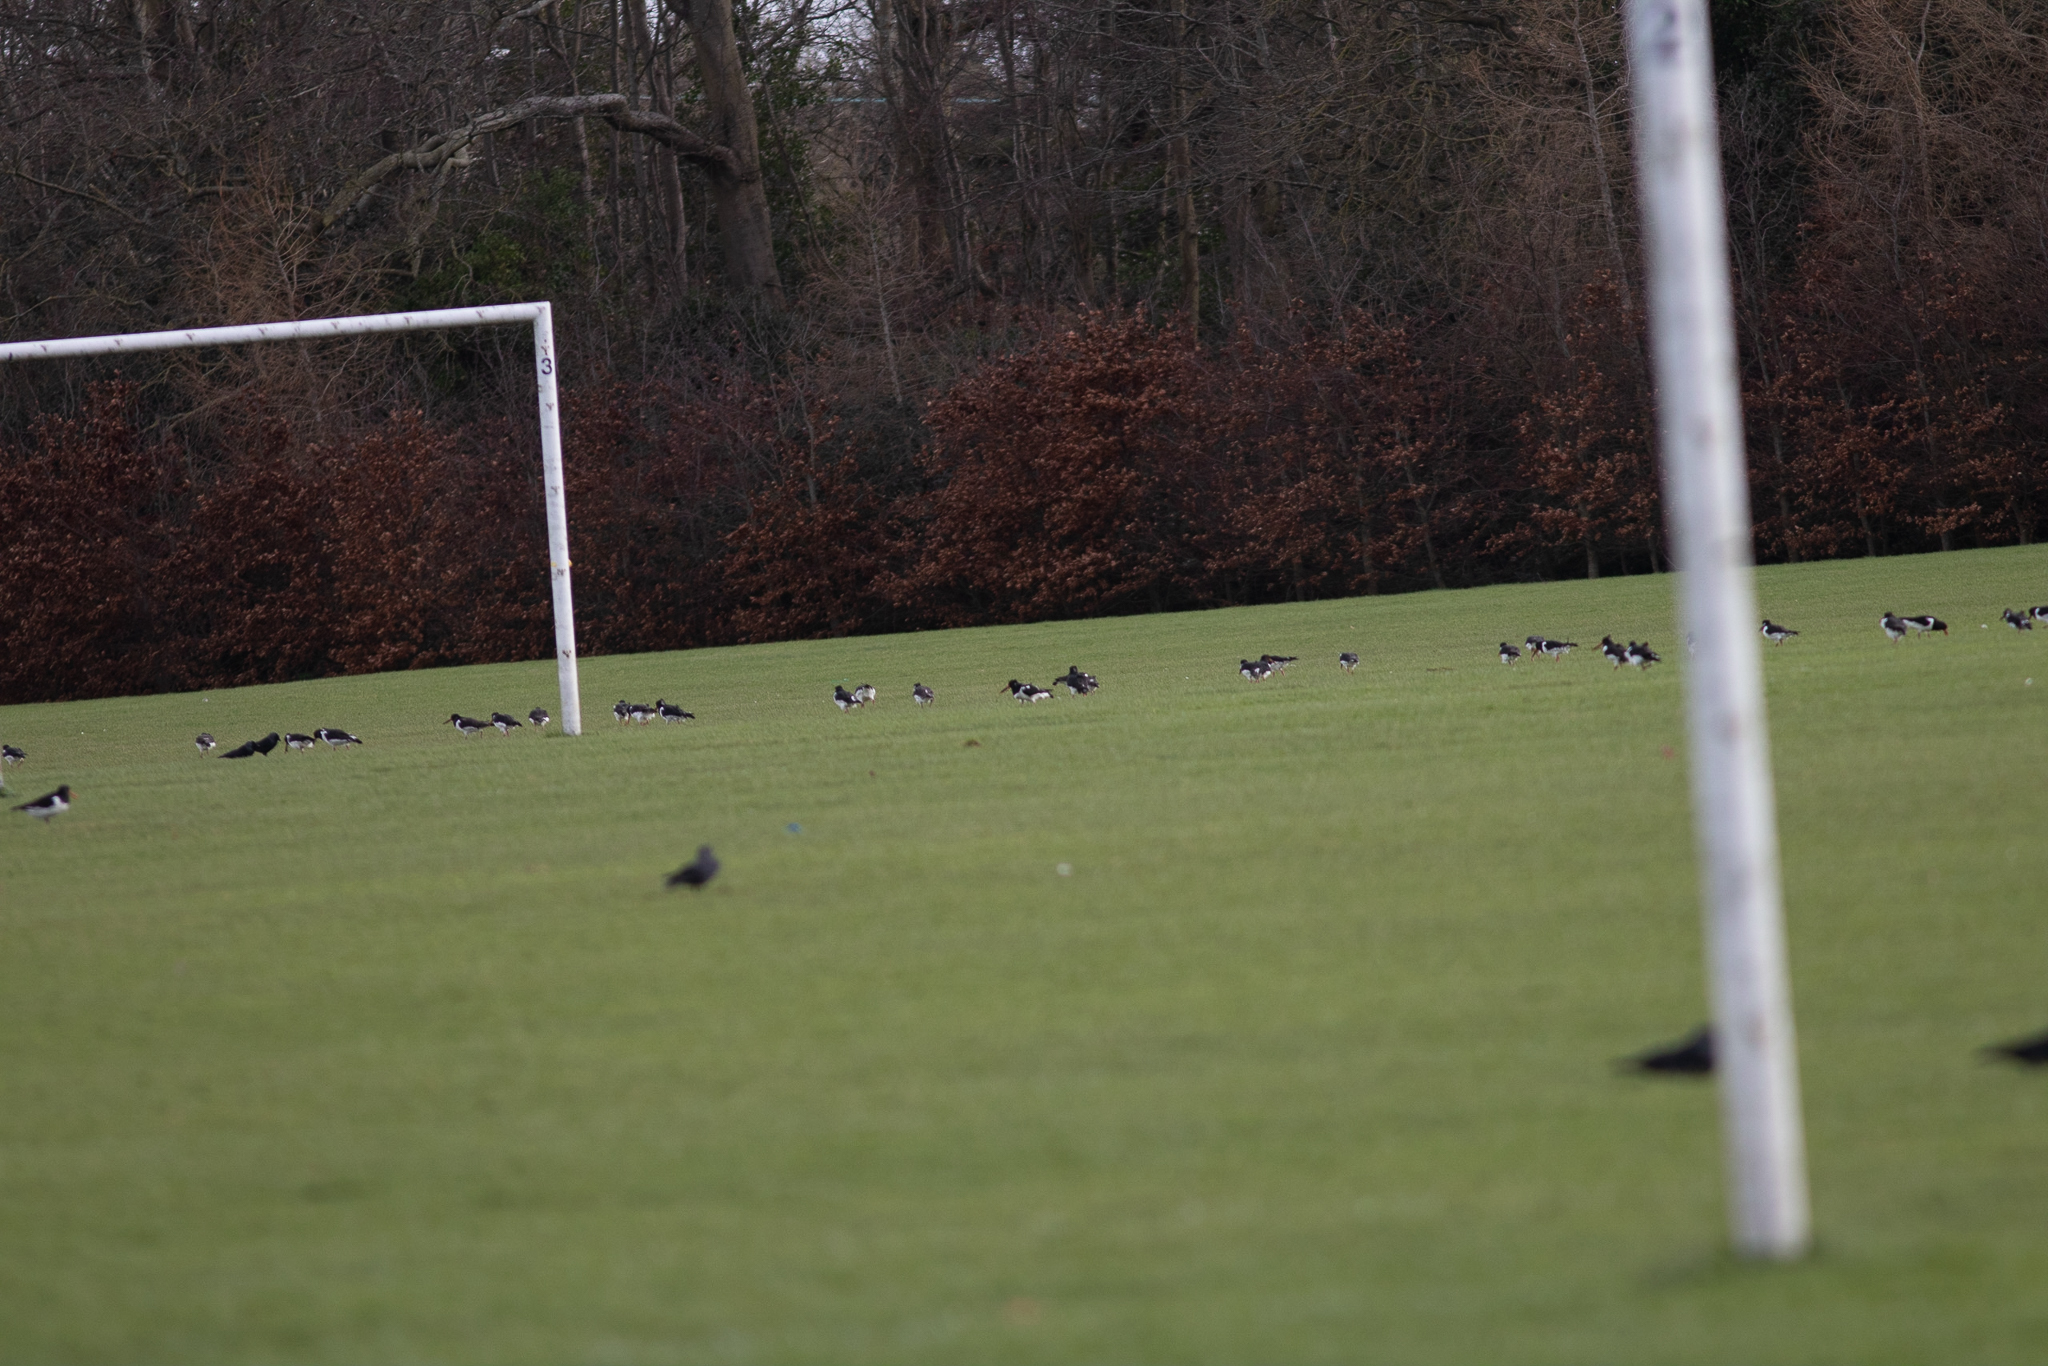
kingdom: Animalia
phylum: Chordata
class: Aves
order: Charadriiformes
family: Haematopodidae
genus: Haematopus
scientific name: Haematopus ostralegus
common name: Eurasian oystercatcher
